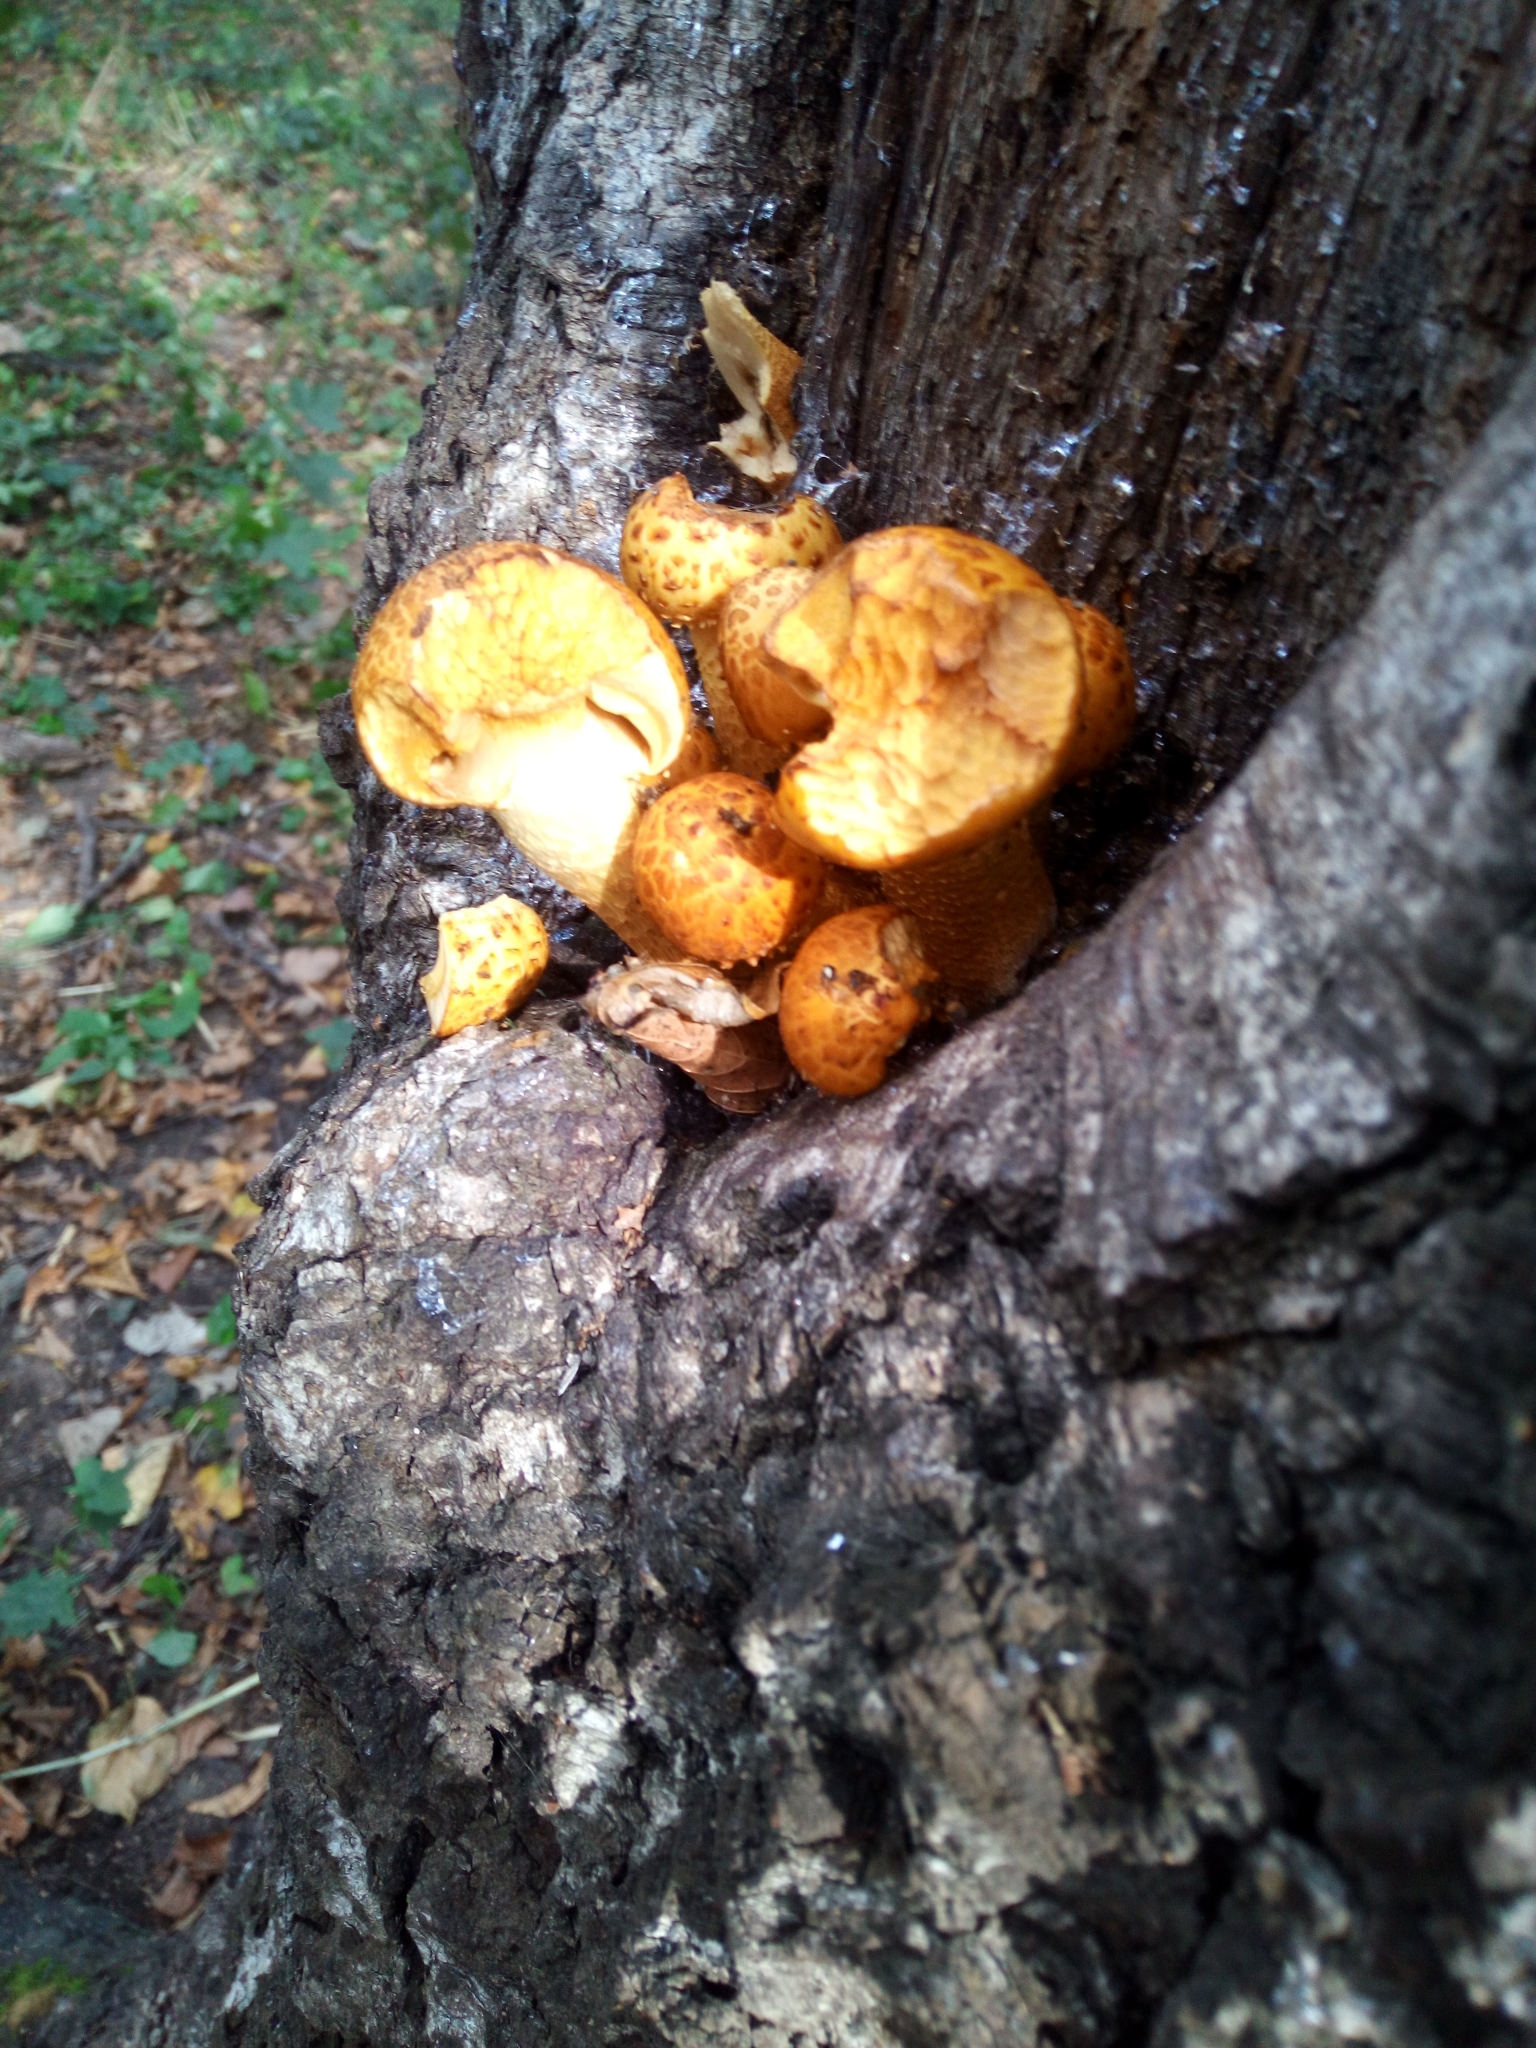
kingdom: Fungi
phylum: Basidiomycota
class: Agaricomycetes
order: Agaricales
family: Strophariaceae
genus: Pholiota
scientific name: Pholiota aurivella
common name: Golden scalycap
